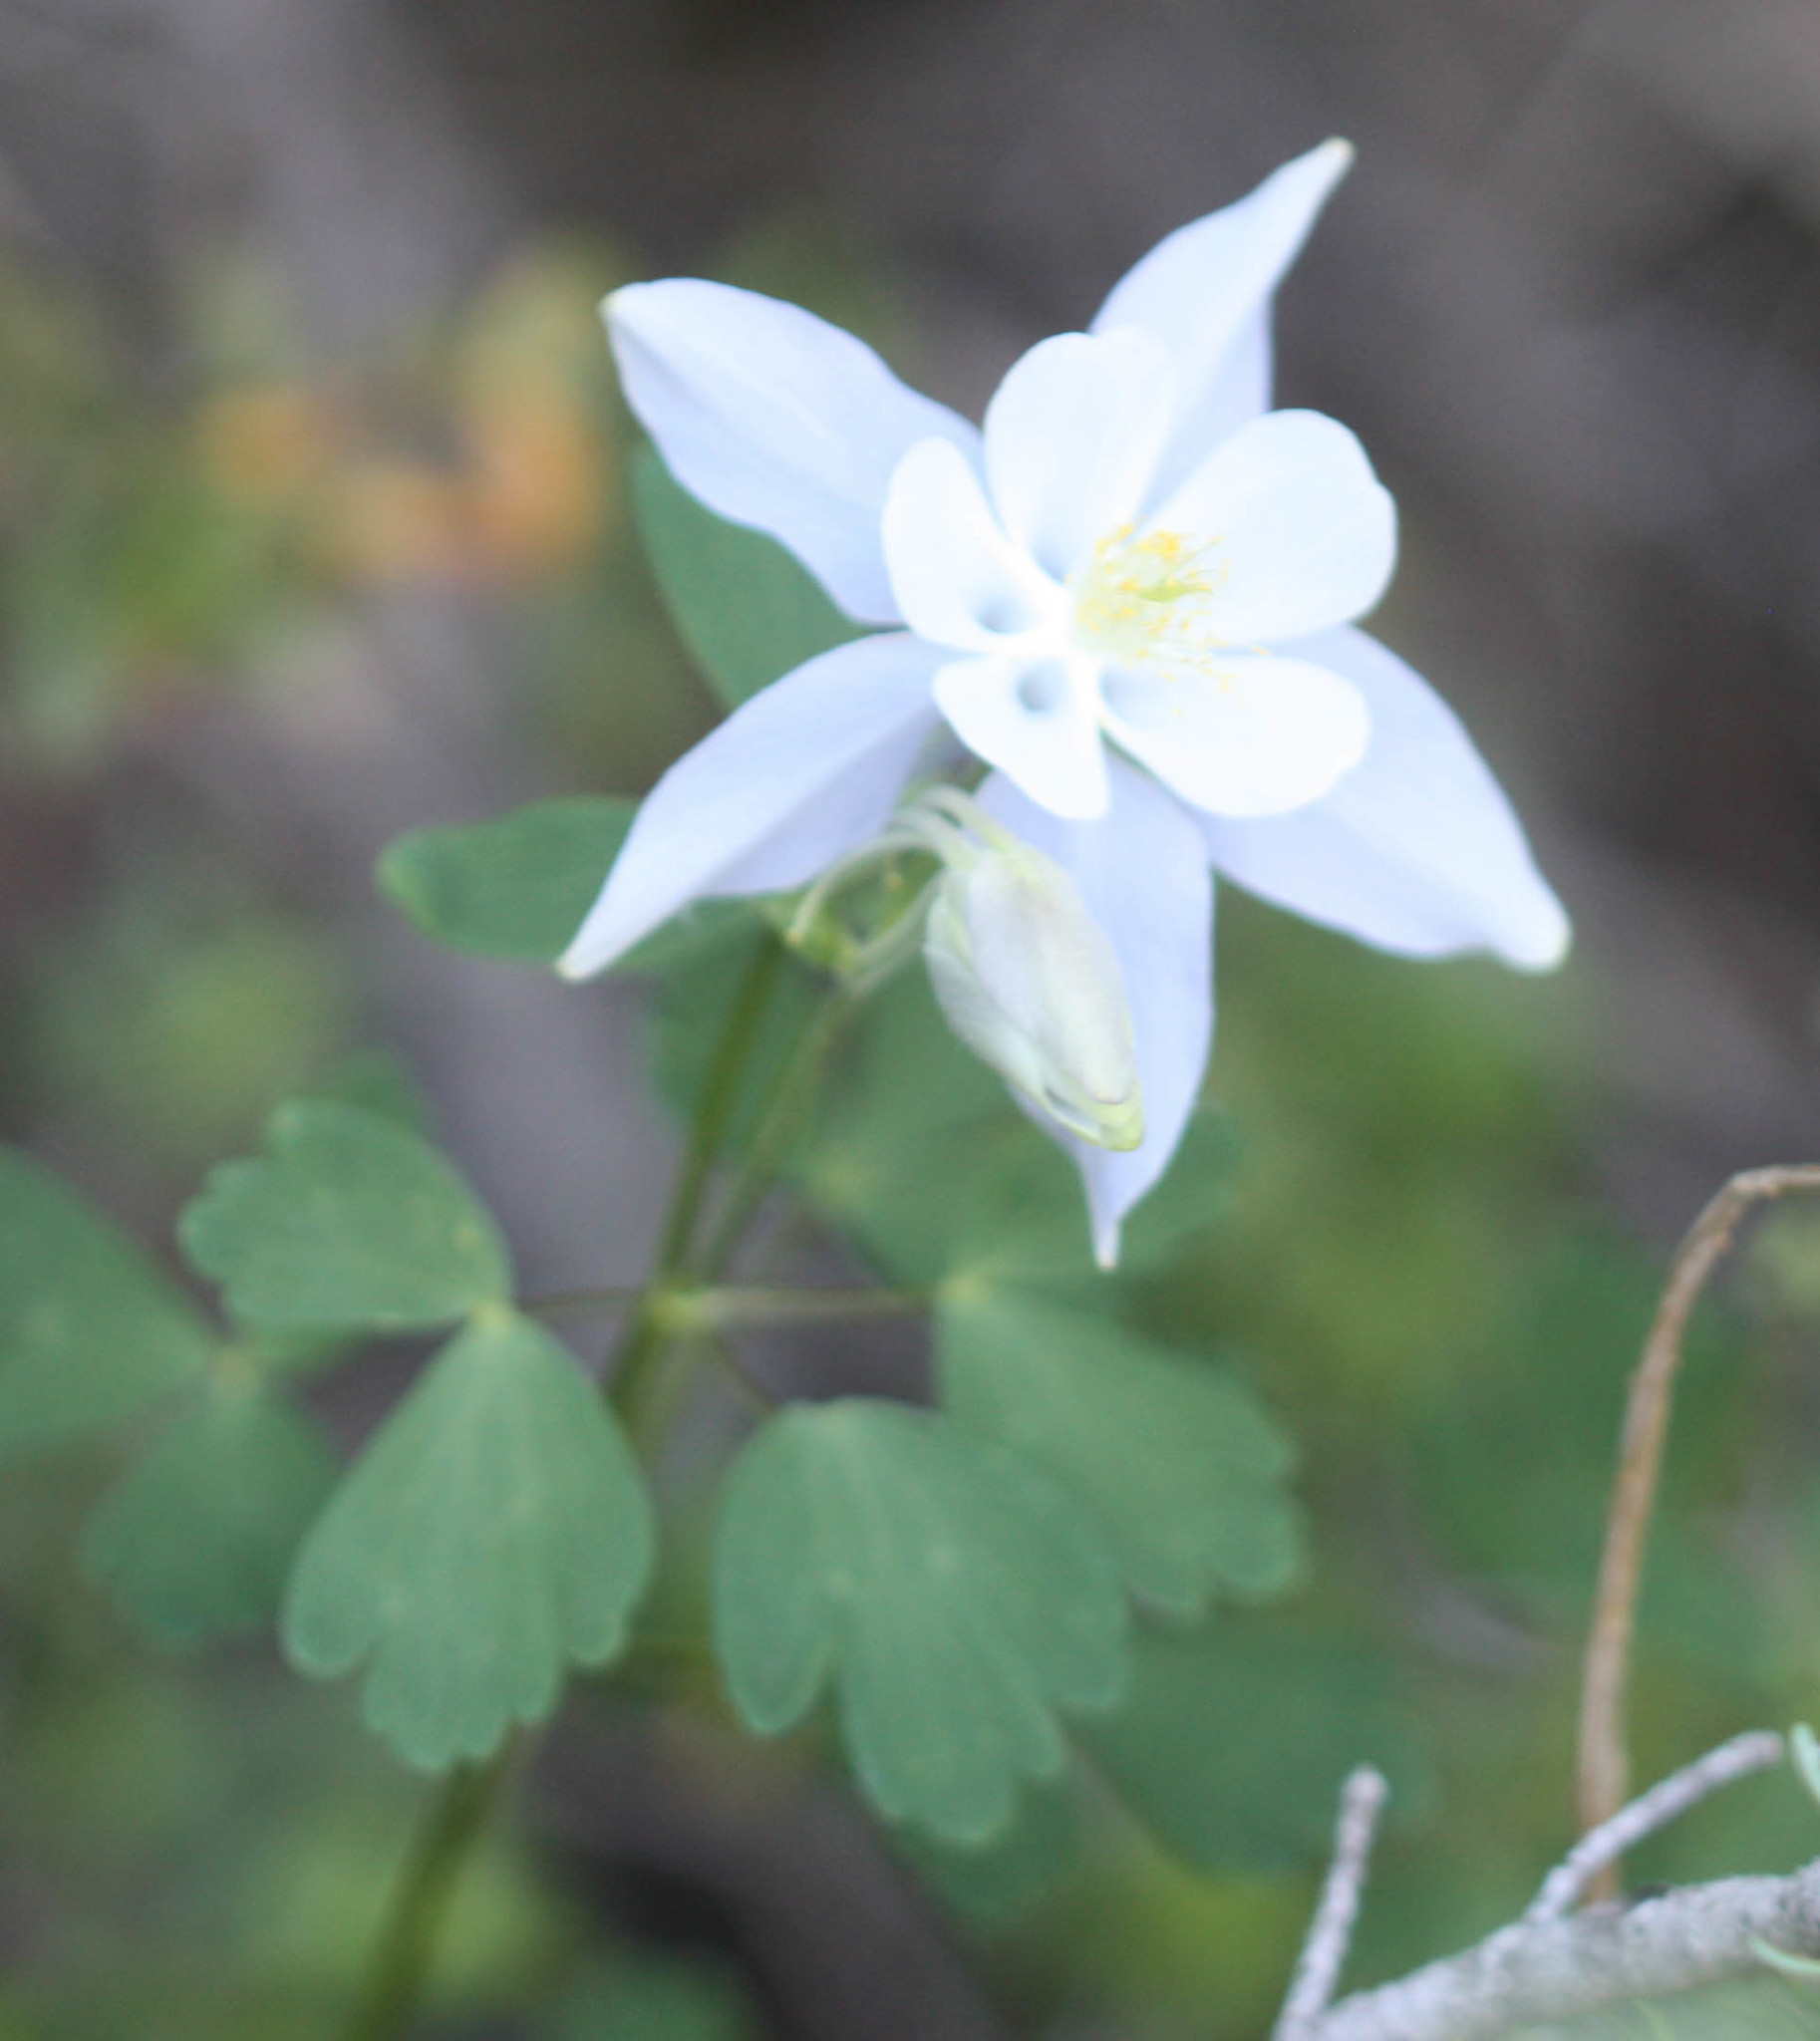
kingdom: Plantae
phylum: Tracheophyta
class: Magnoliopsida
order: Ranunculales
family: Ranunculaceae
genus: Aquilegia
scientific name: Aquilegia coerulea
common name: Rocky mountain columbine
